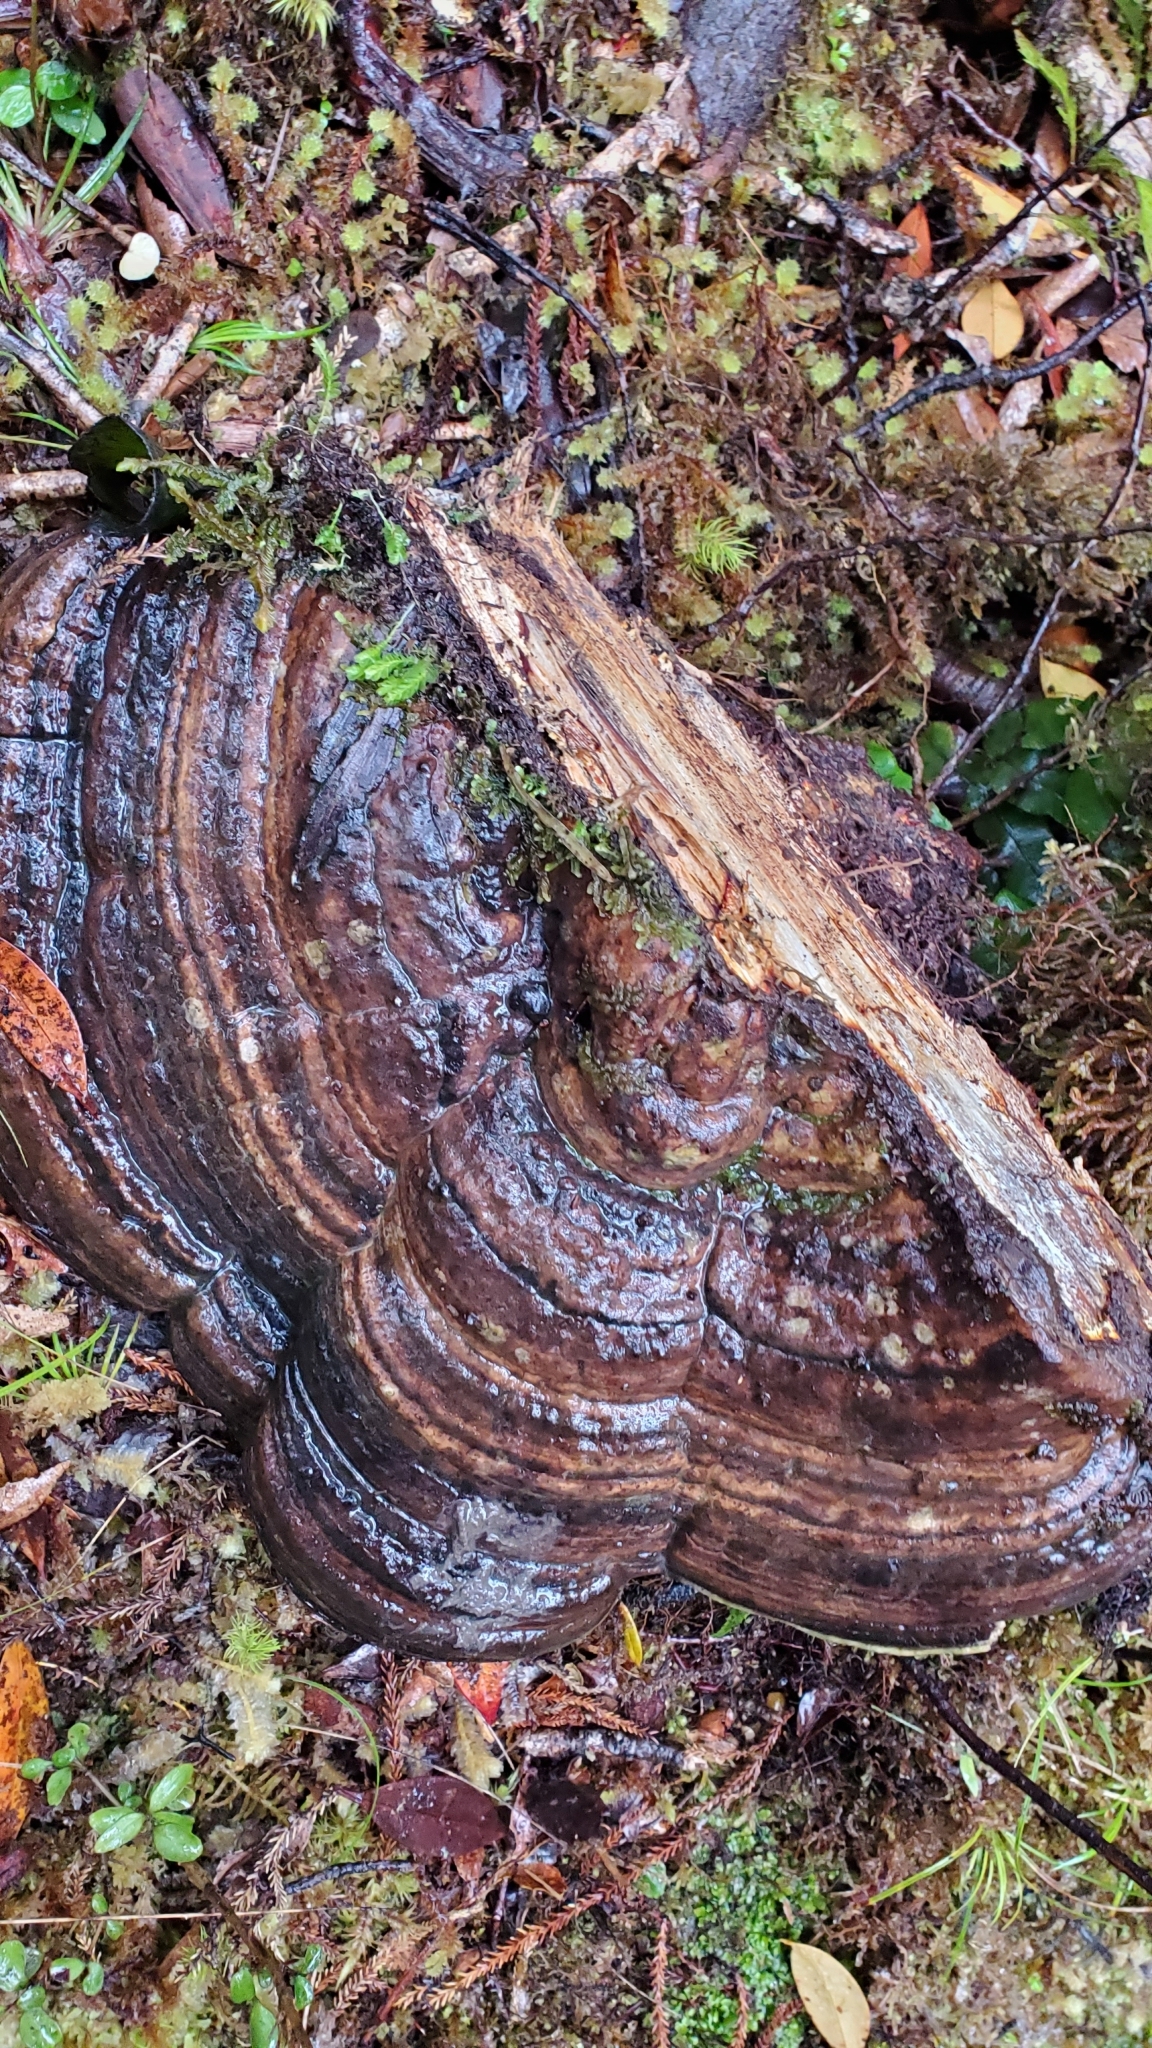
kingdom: Fungi
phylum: Basidiomycota
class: Agaricomycetes
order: Polyporales
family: Fomitopsidaceae
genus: Pilatoporus
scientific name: Pilatoporus hemitephrus
